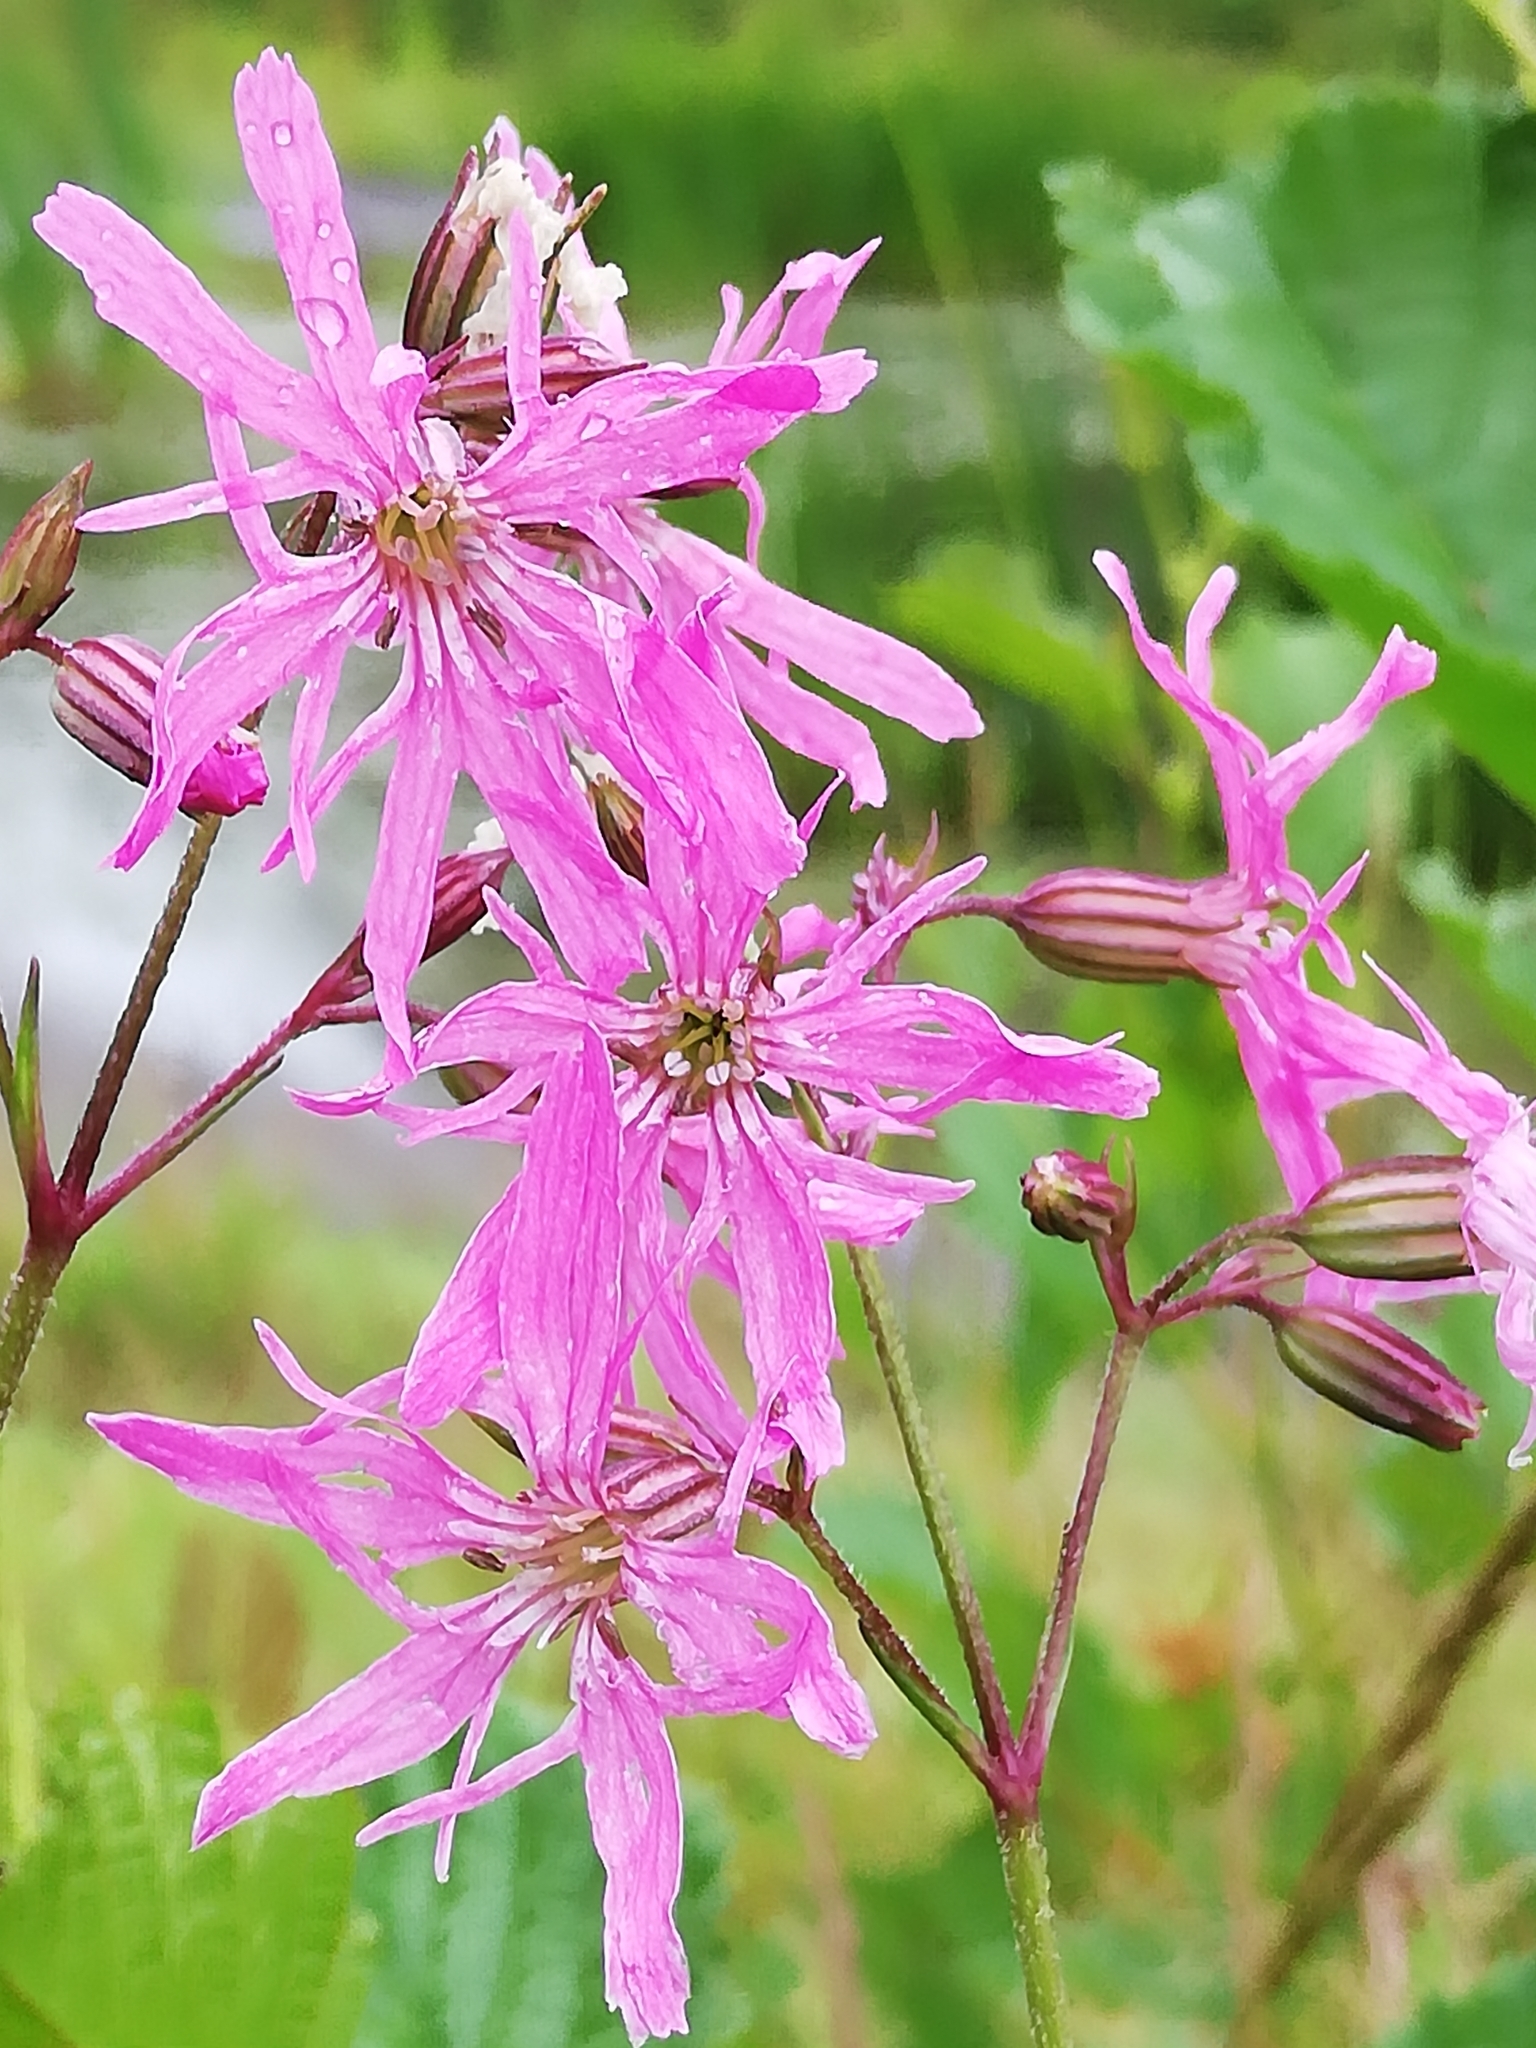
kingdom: Plantae
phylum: Tracheophyta
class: Magnoliopsida
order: Caryophyllales
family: Caryophyllaceae
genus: Silene
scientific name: Silene flos-cuculi
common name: Ragged-robin
